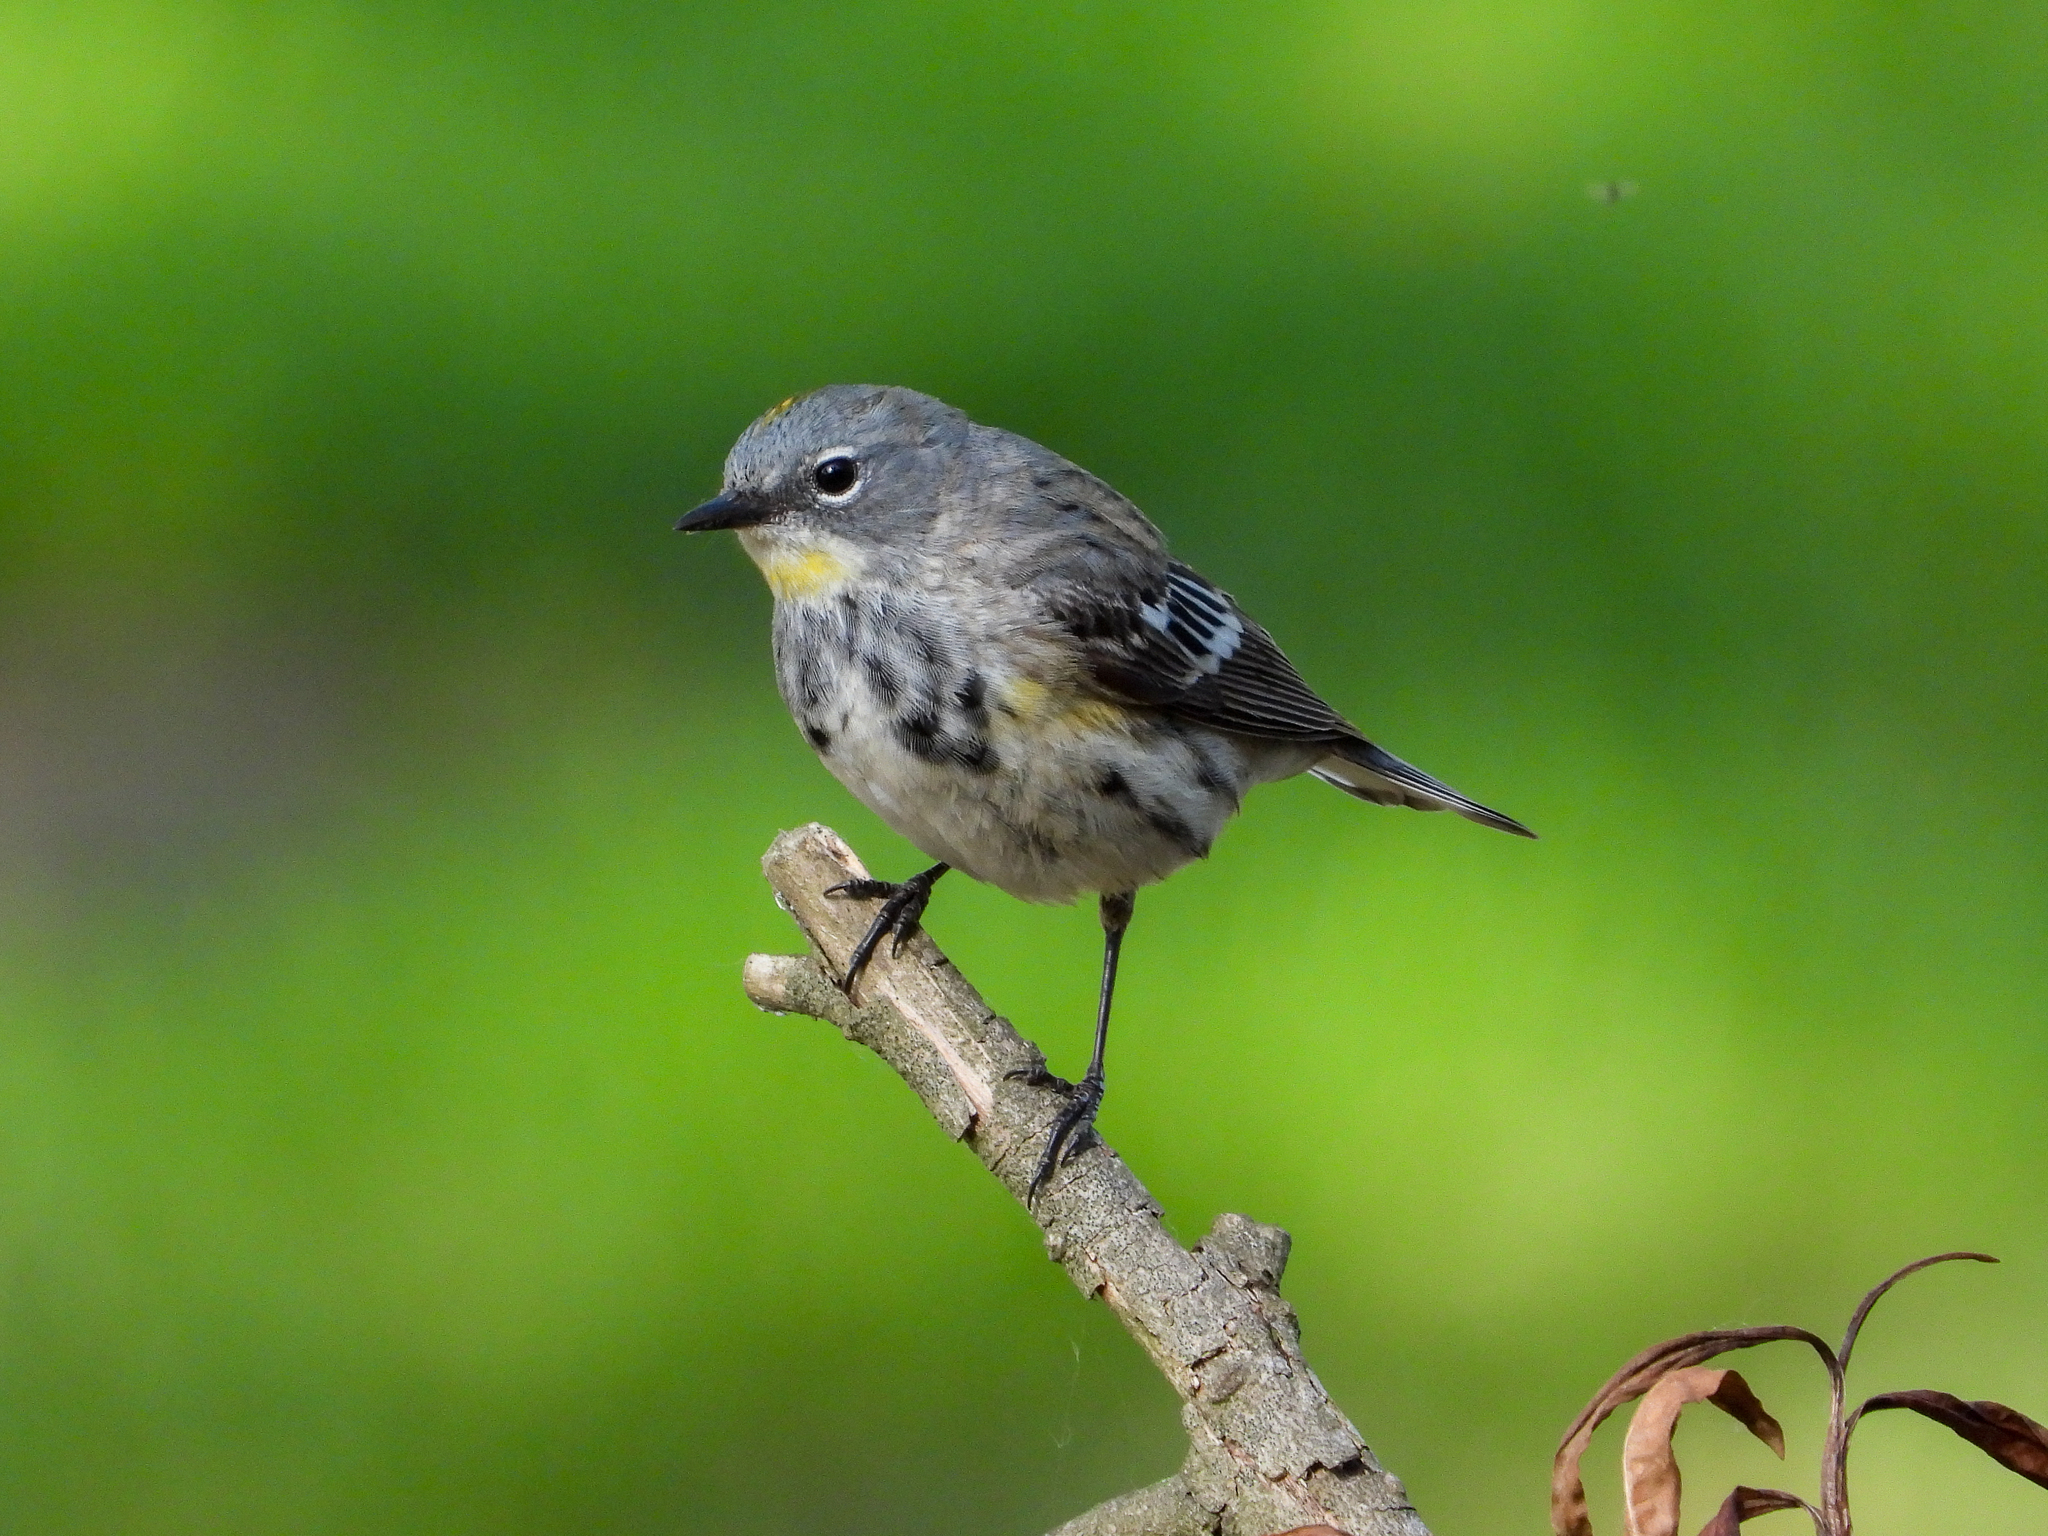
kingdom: Animalia
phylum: Chordata
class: Aves
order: Passeriformes
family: Parulidae
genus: Setophaga
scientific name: Setophaga coronata
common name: Myrtle warbler
